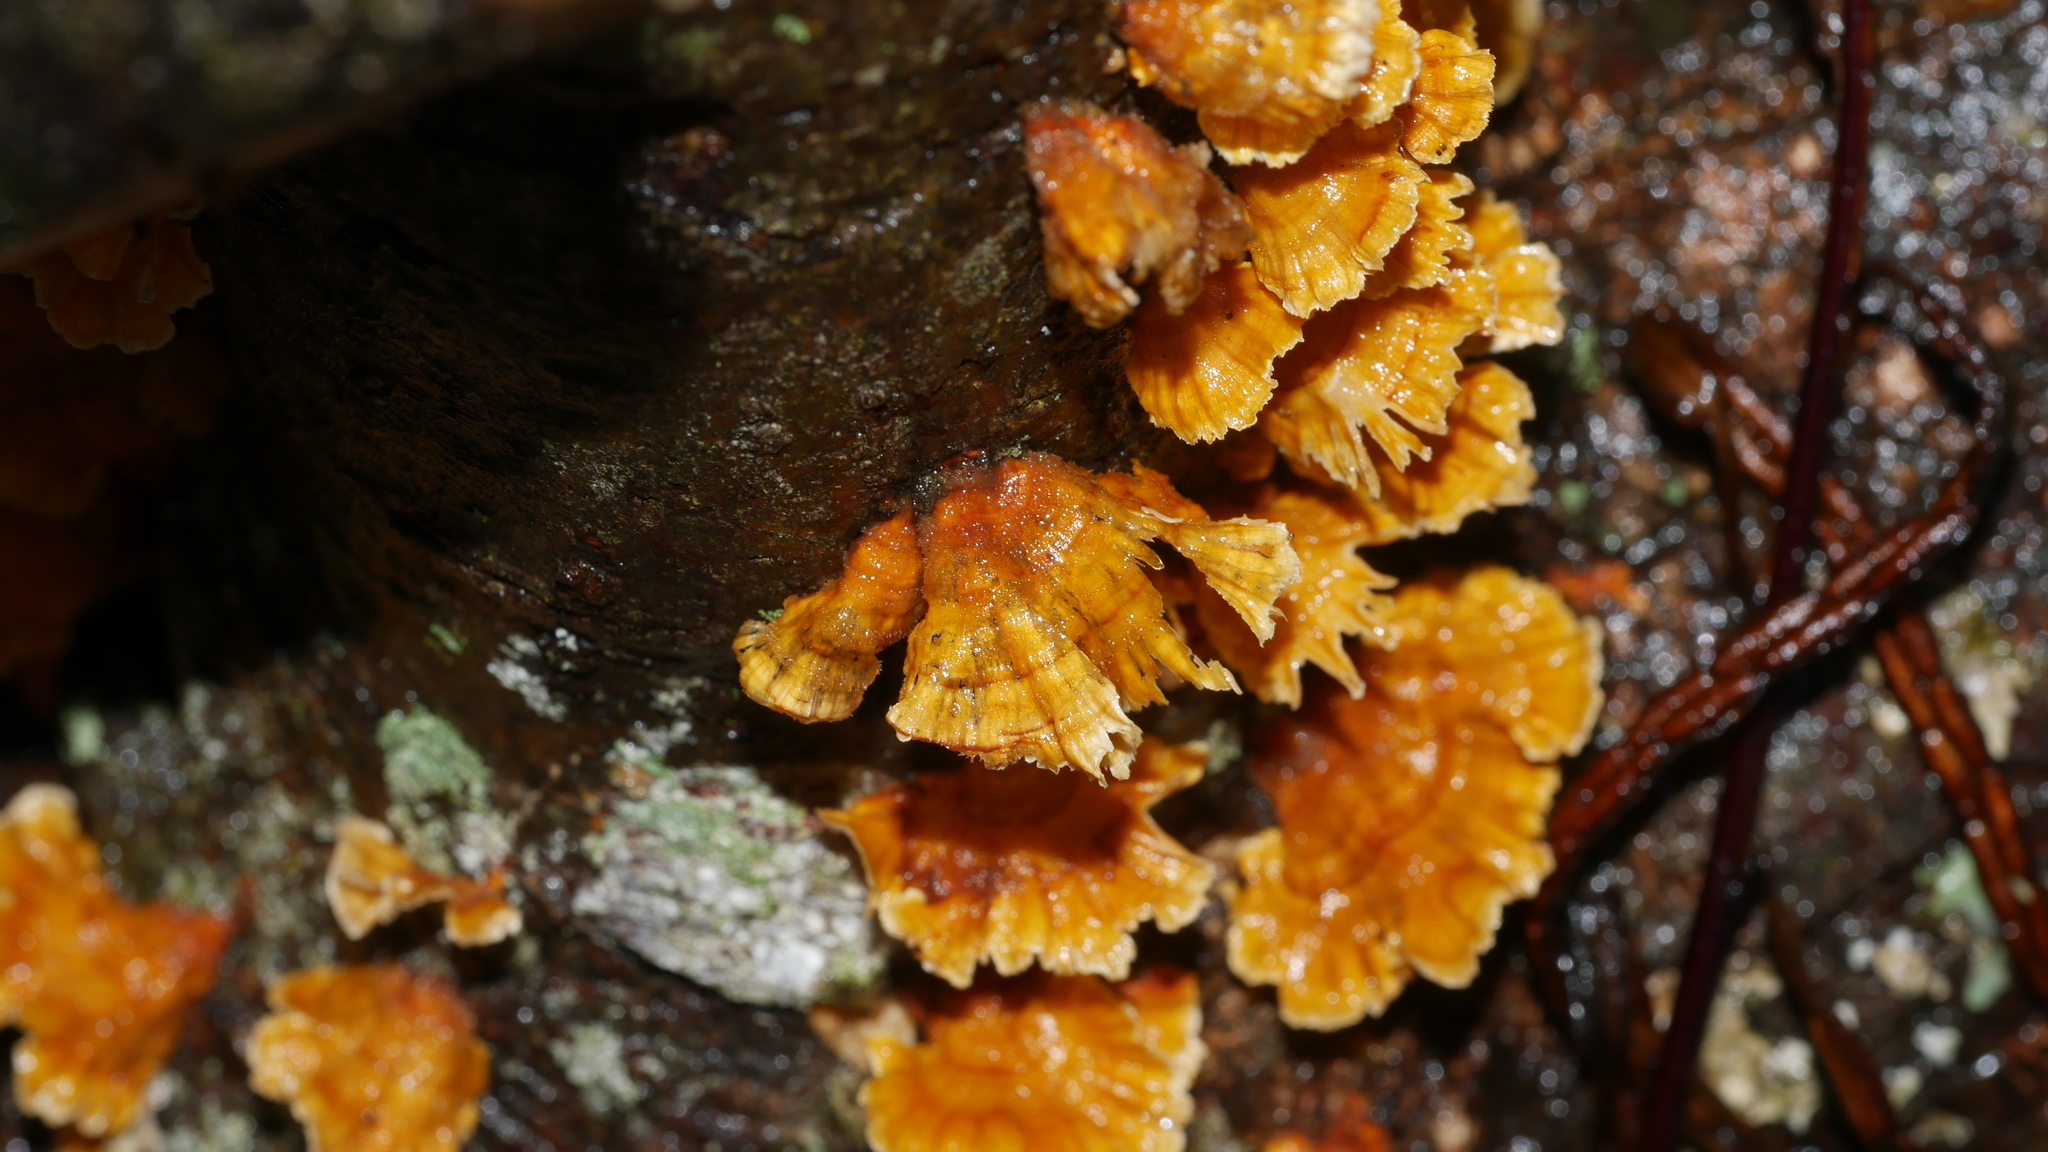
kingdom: Fungi
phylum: Basidiomycota
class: Agaricomycetes
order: Russulales
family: Stereaceae
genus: Stereum
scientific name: Stereum complicatum
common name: Crowded parchment
